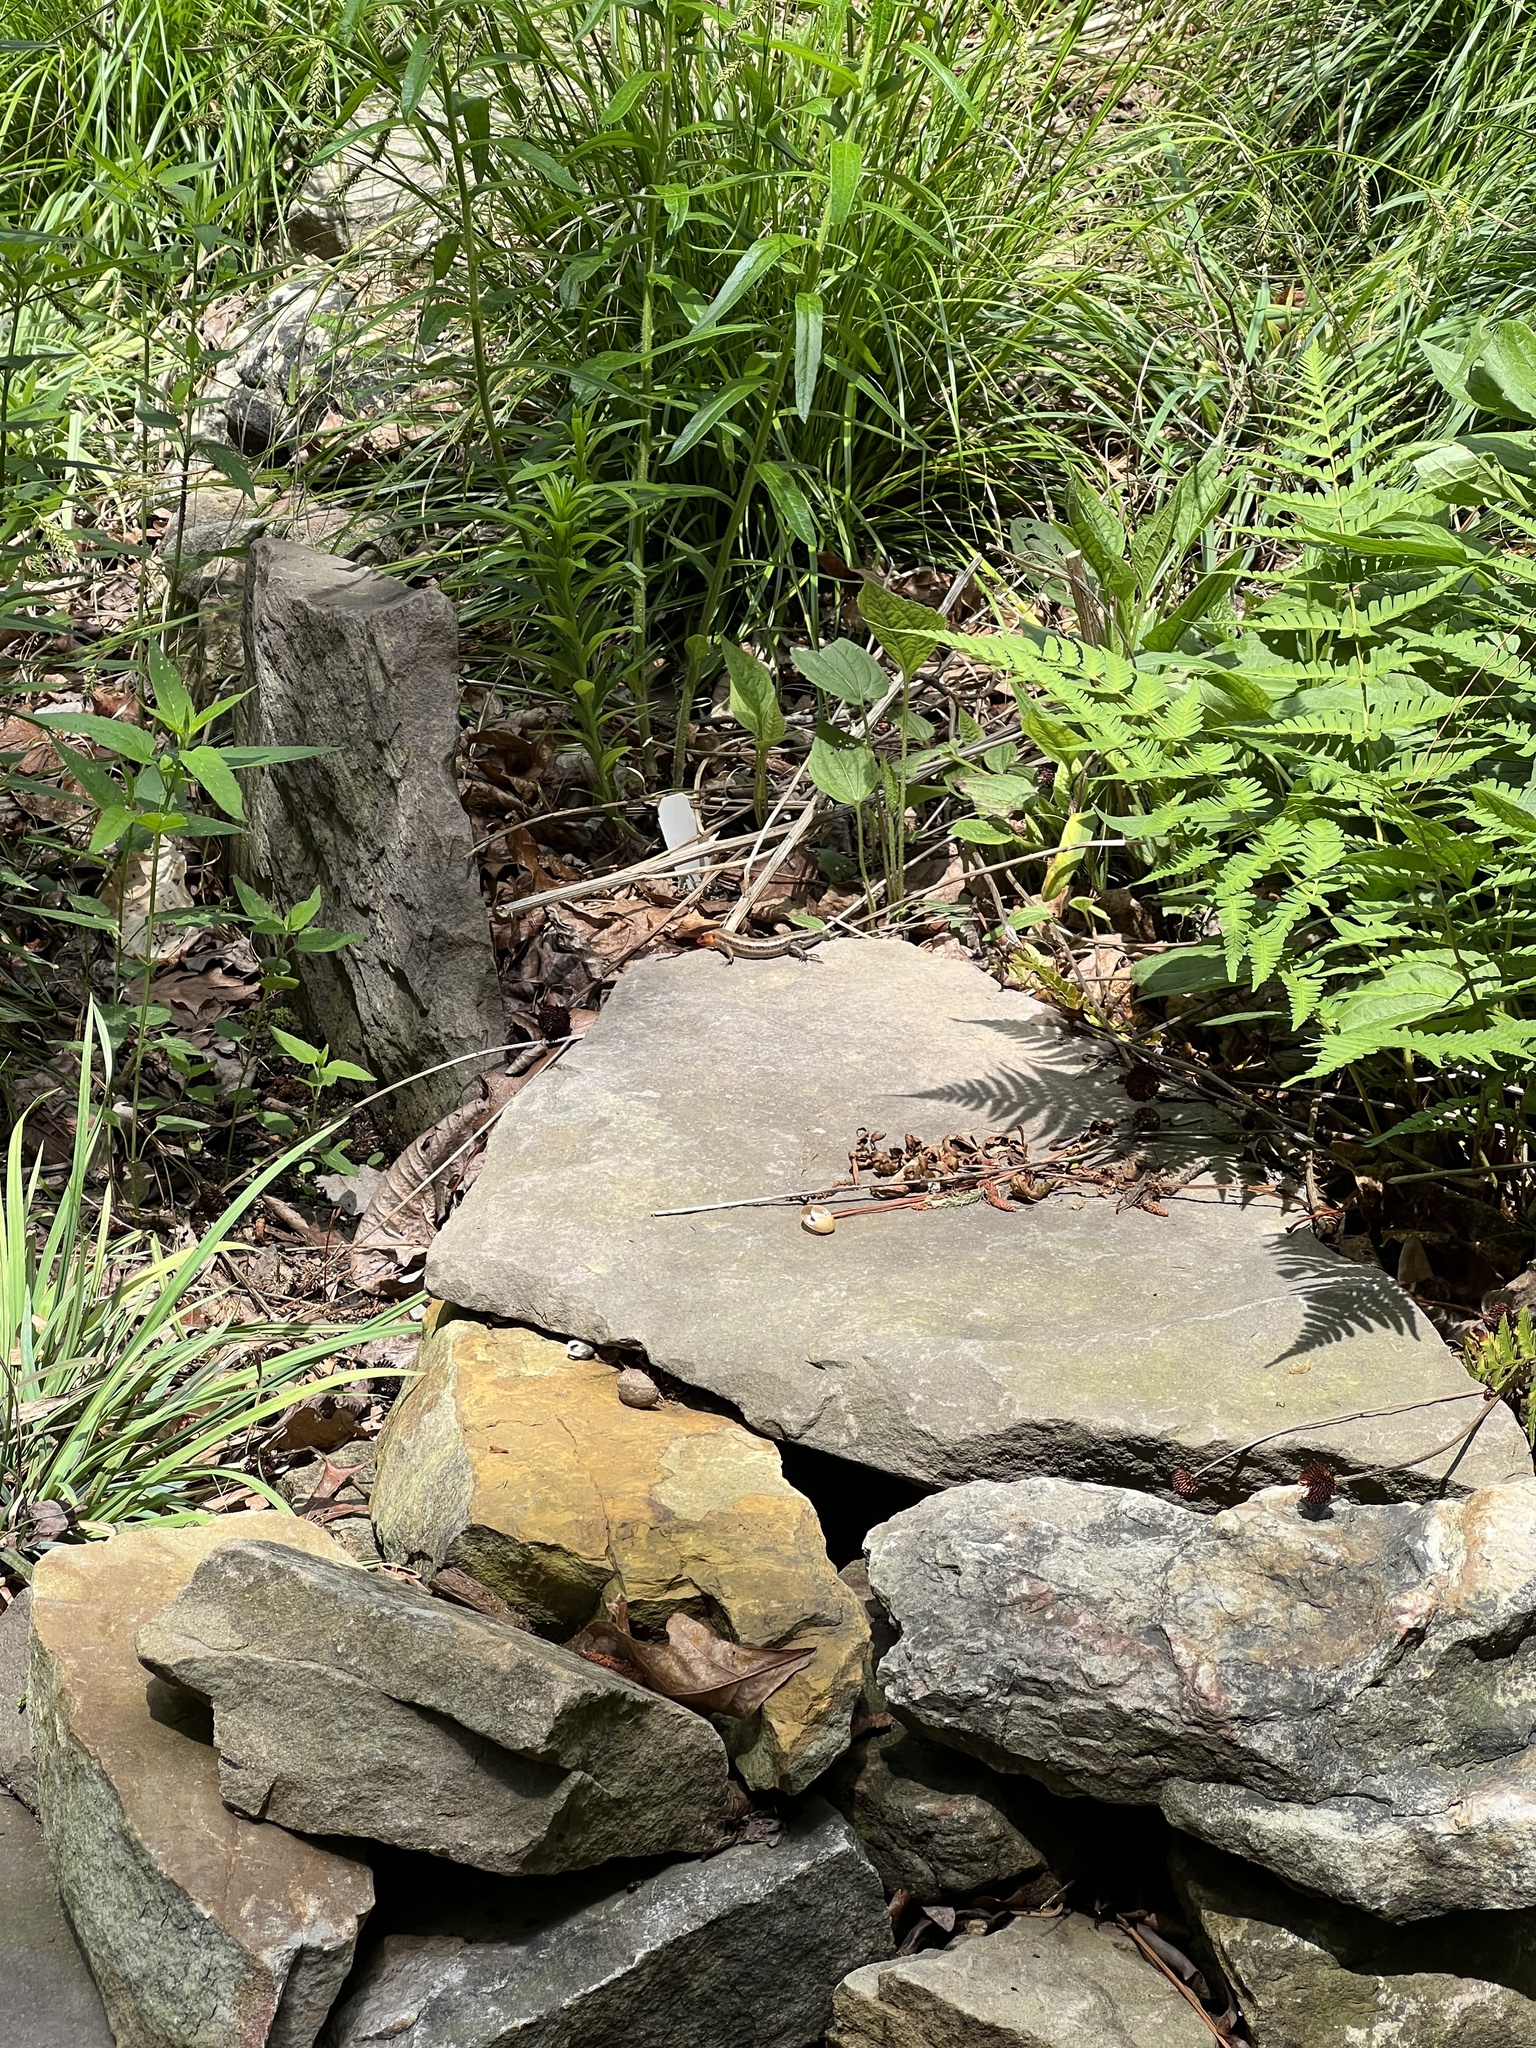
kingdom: Animalia
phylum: Chordata
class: Squamata
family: Scincidae
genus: Plestiodon
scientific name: Plestiodon fasciatus
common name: Five-lined skink
